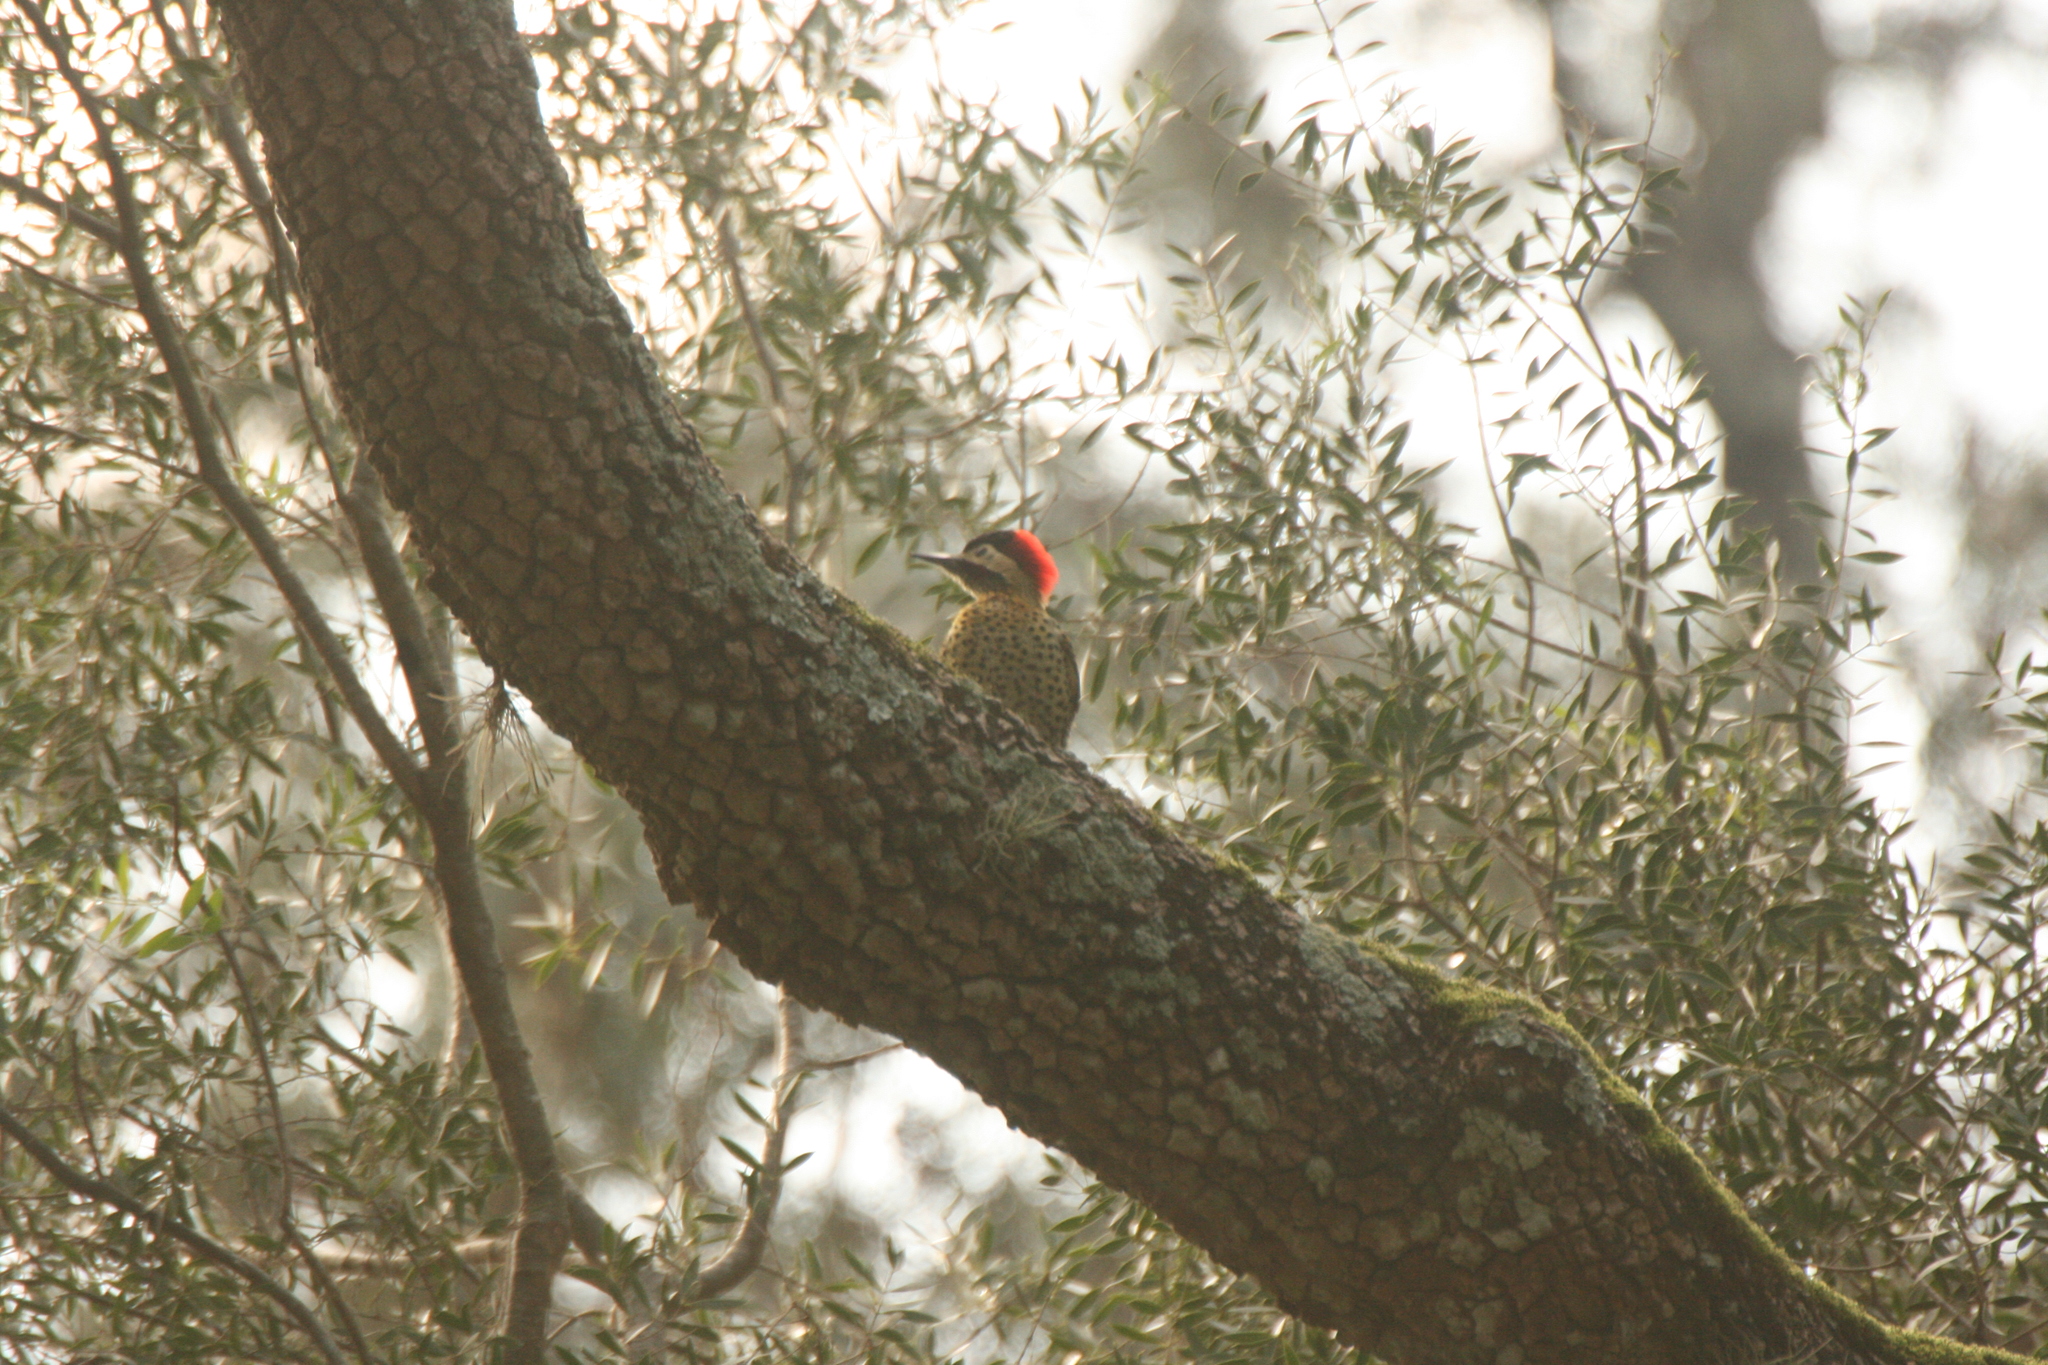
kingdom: Animalia
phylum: Chordata
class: Aves
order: Piciformes
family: Picidae
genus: Colaptes
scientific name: Colaptes melanochloros
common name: Green-barred woodpecker
